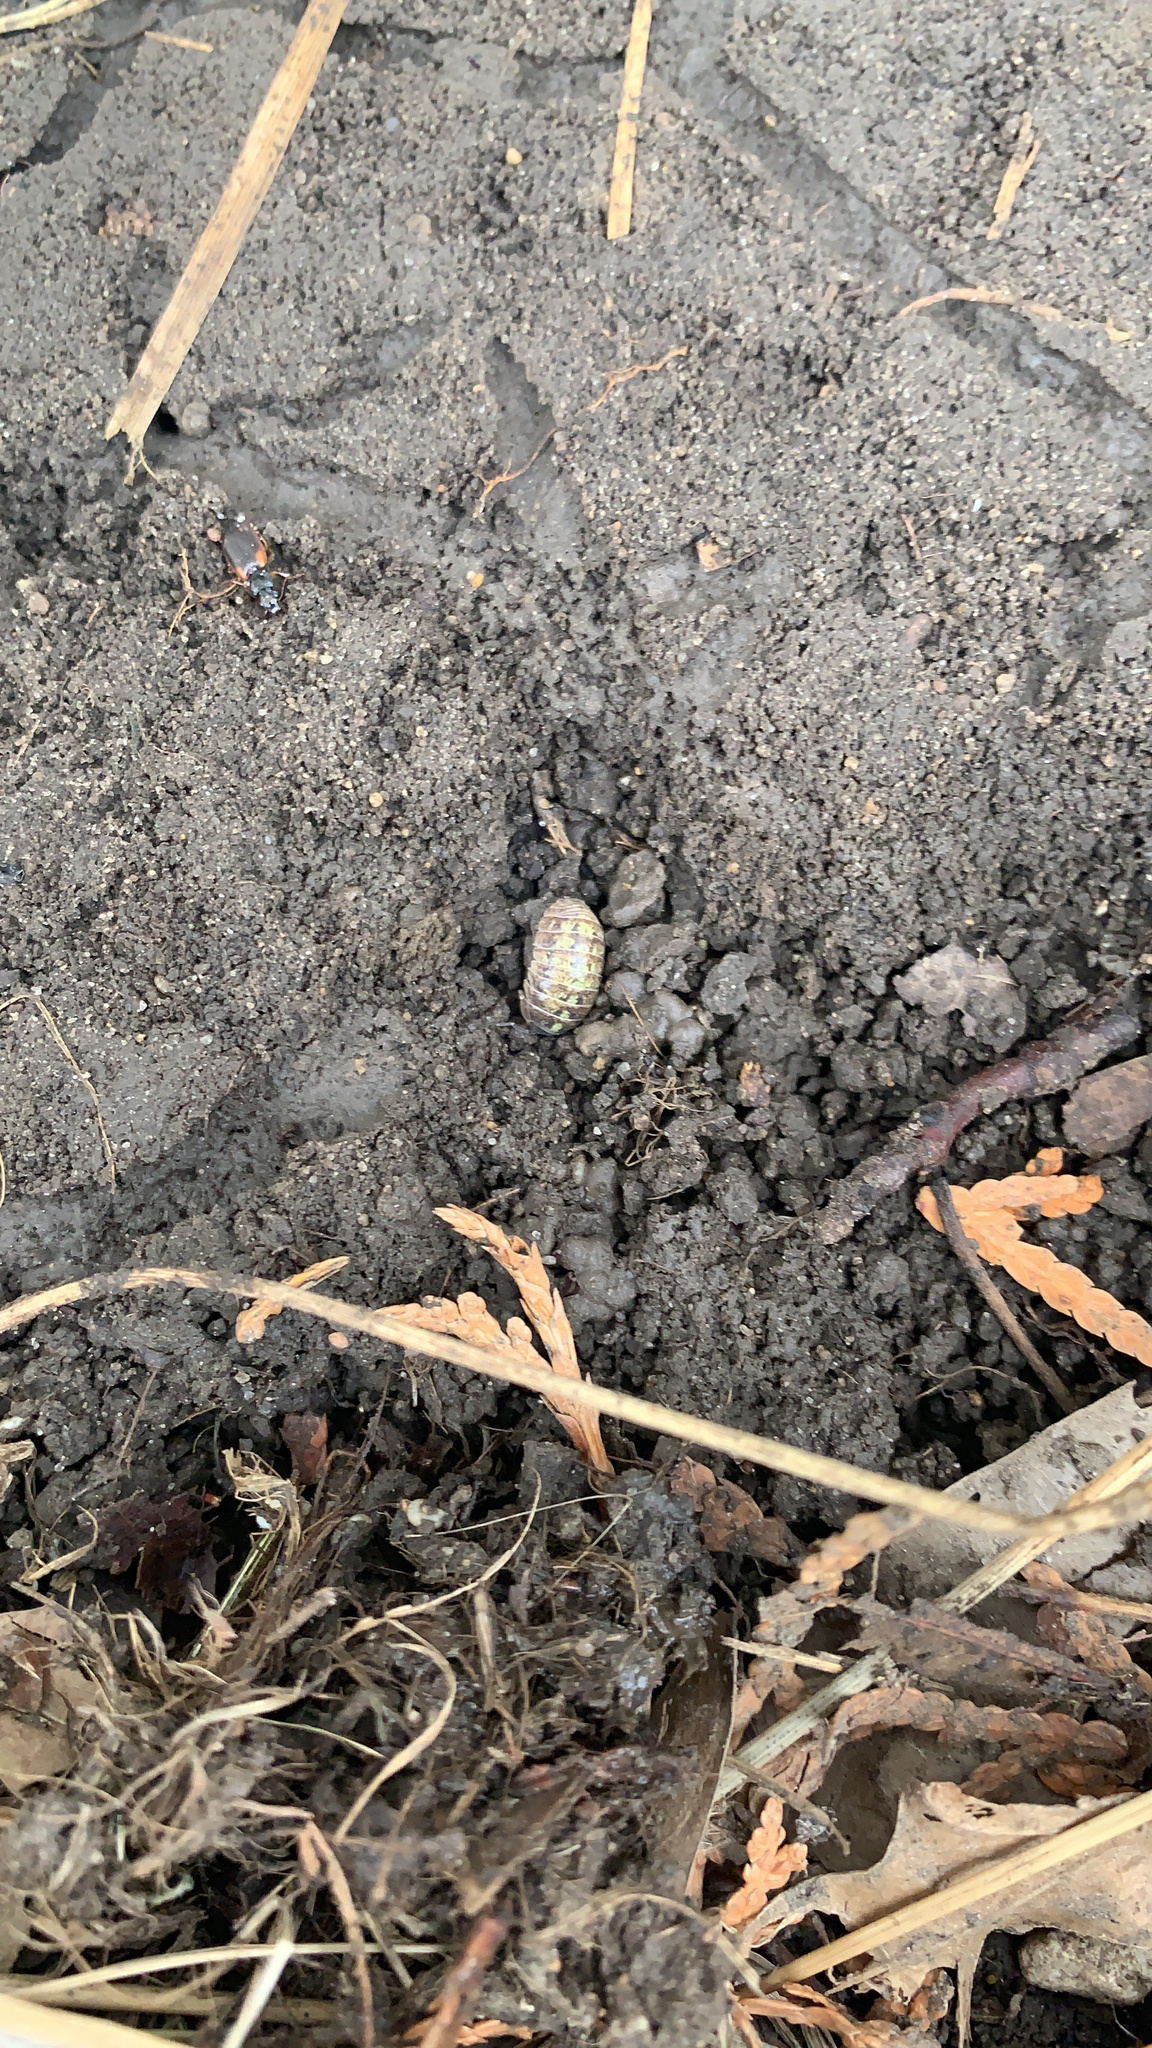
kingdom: Animalia
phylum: Arthropoda
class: Malacostraca
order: Isopoda
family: Armadillidiidae
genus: Armadillidium
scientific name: Armadillidium vulgare
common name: Common pill woodlouse
